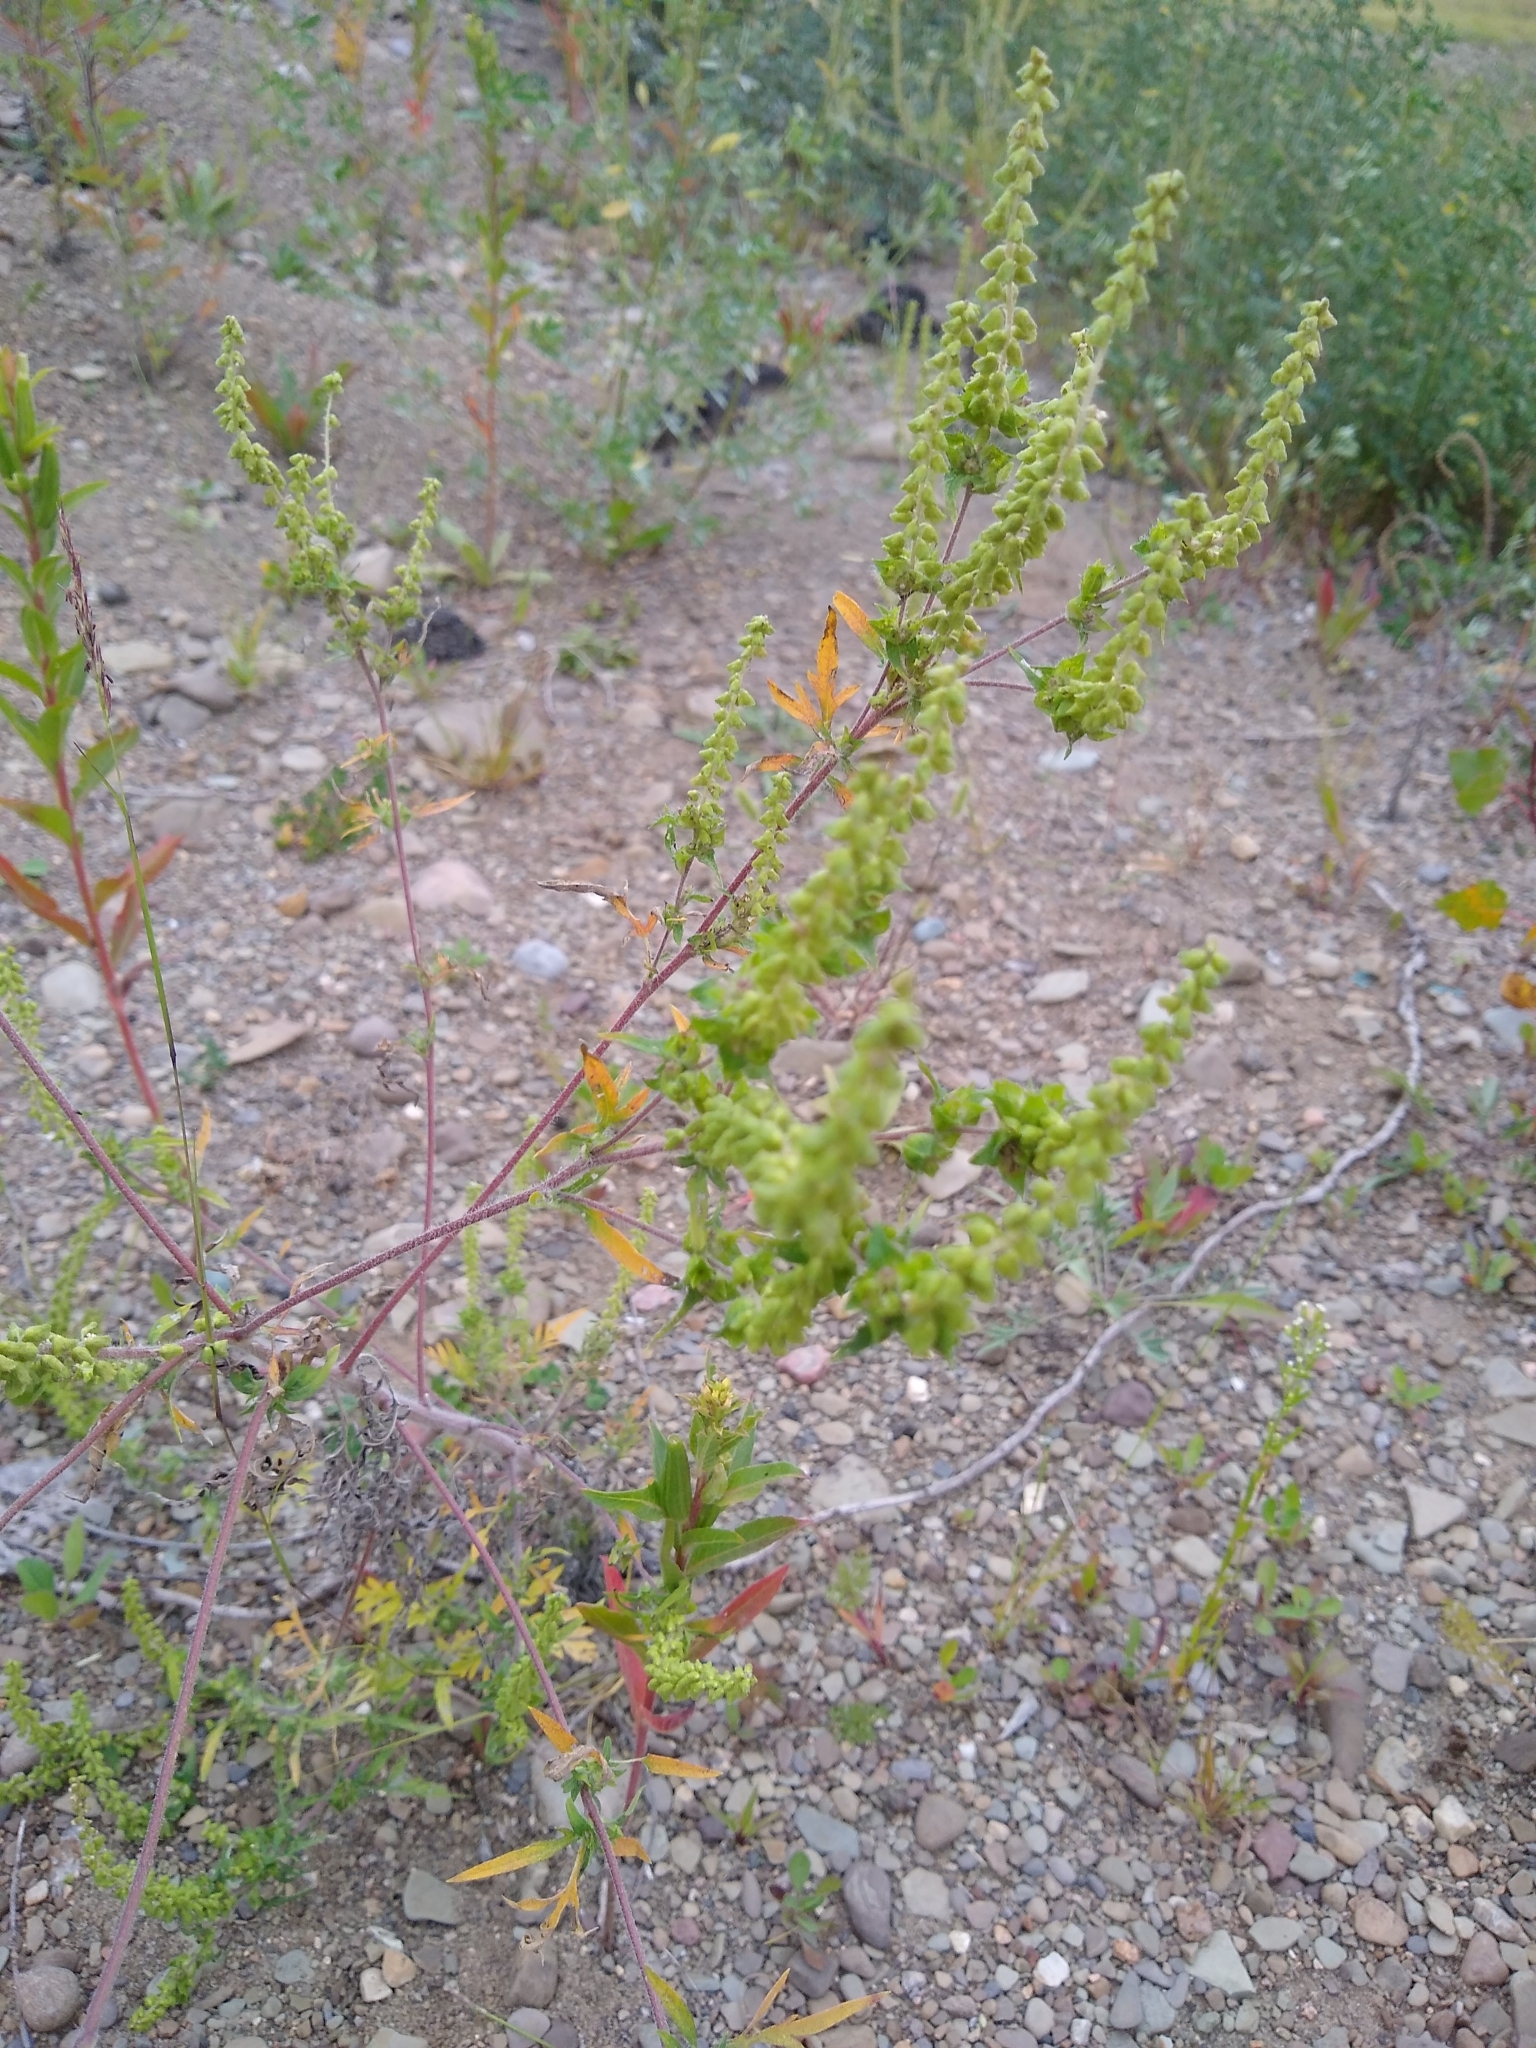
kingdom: Plantae
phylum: Tracheophyta
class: Magnoliopsida
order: Asterales
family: Asteraceae
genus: Ambrosia
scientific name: Ambrosia artemisiifolia
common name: Annual ragweed
